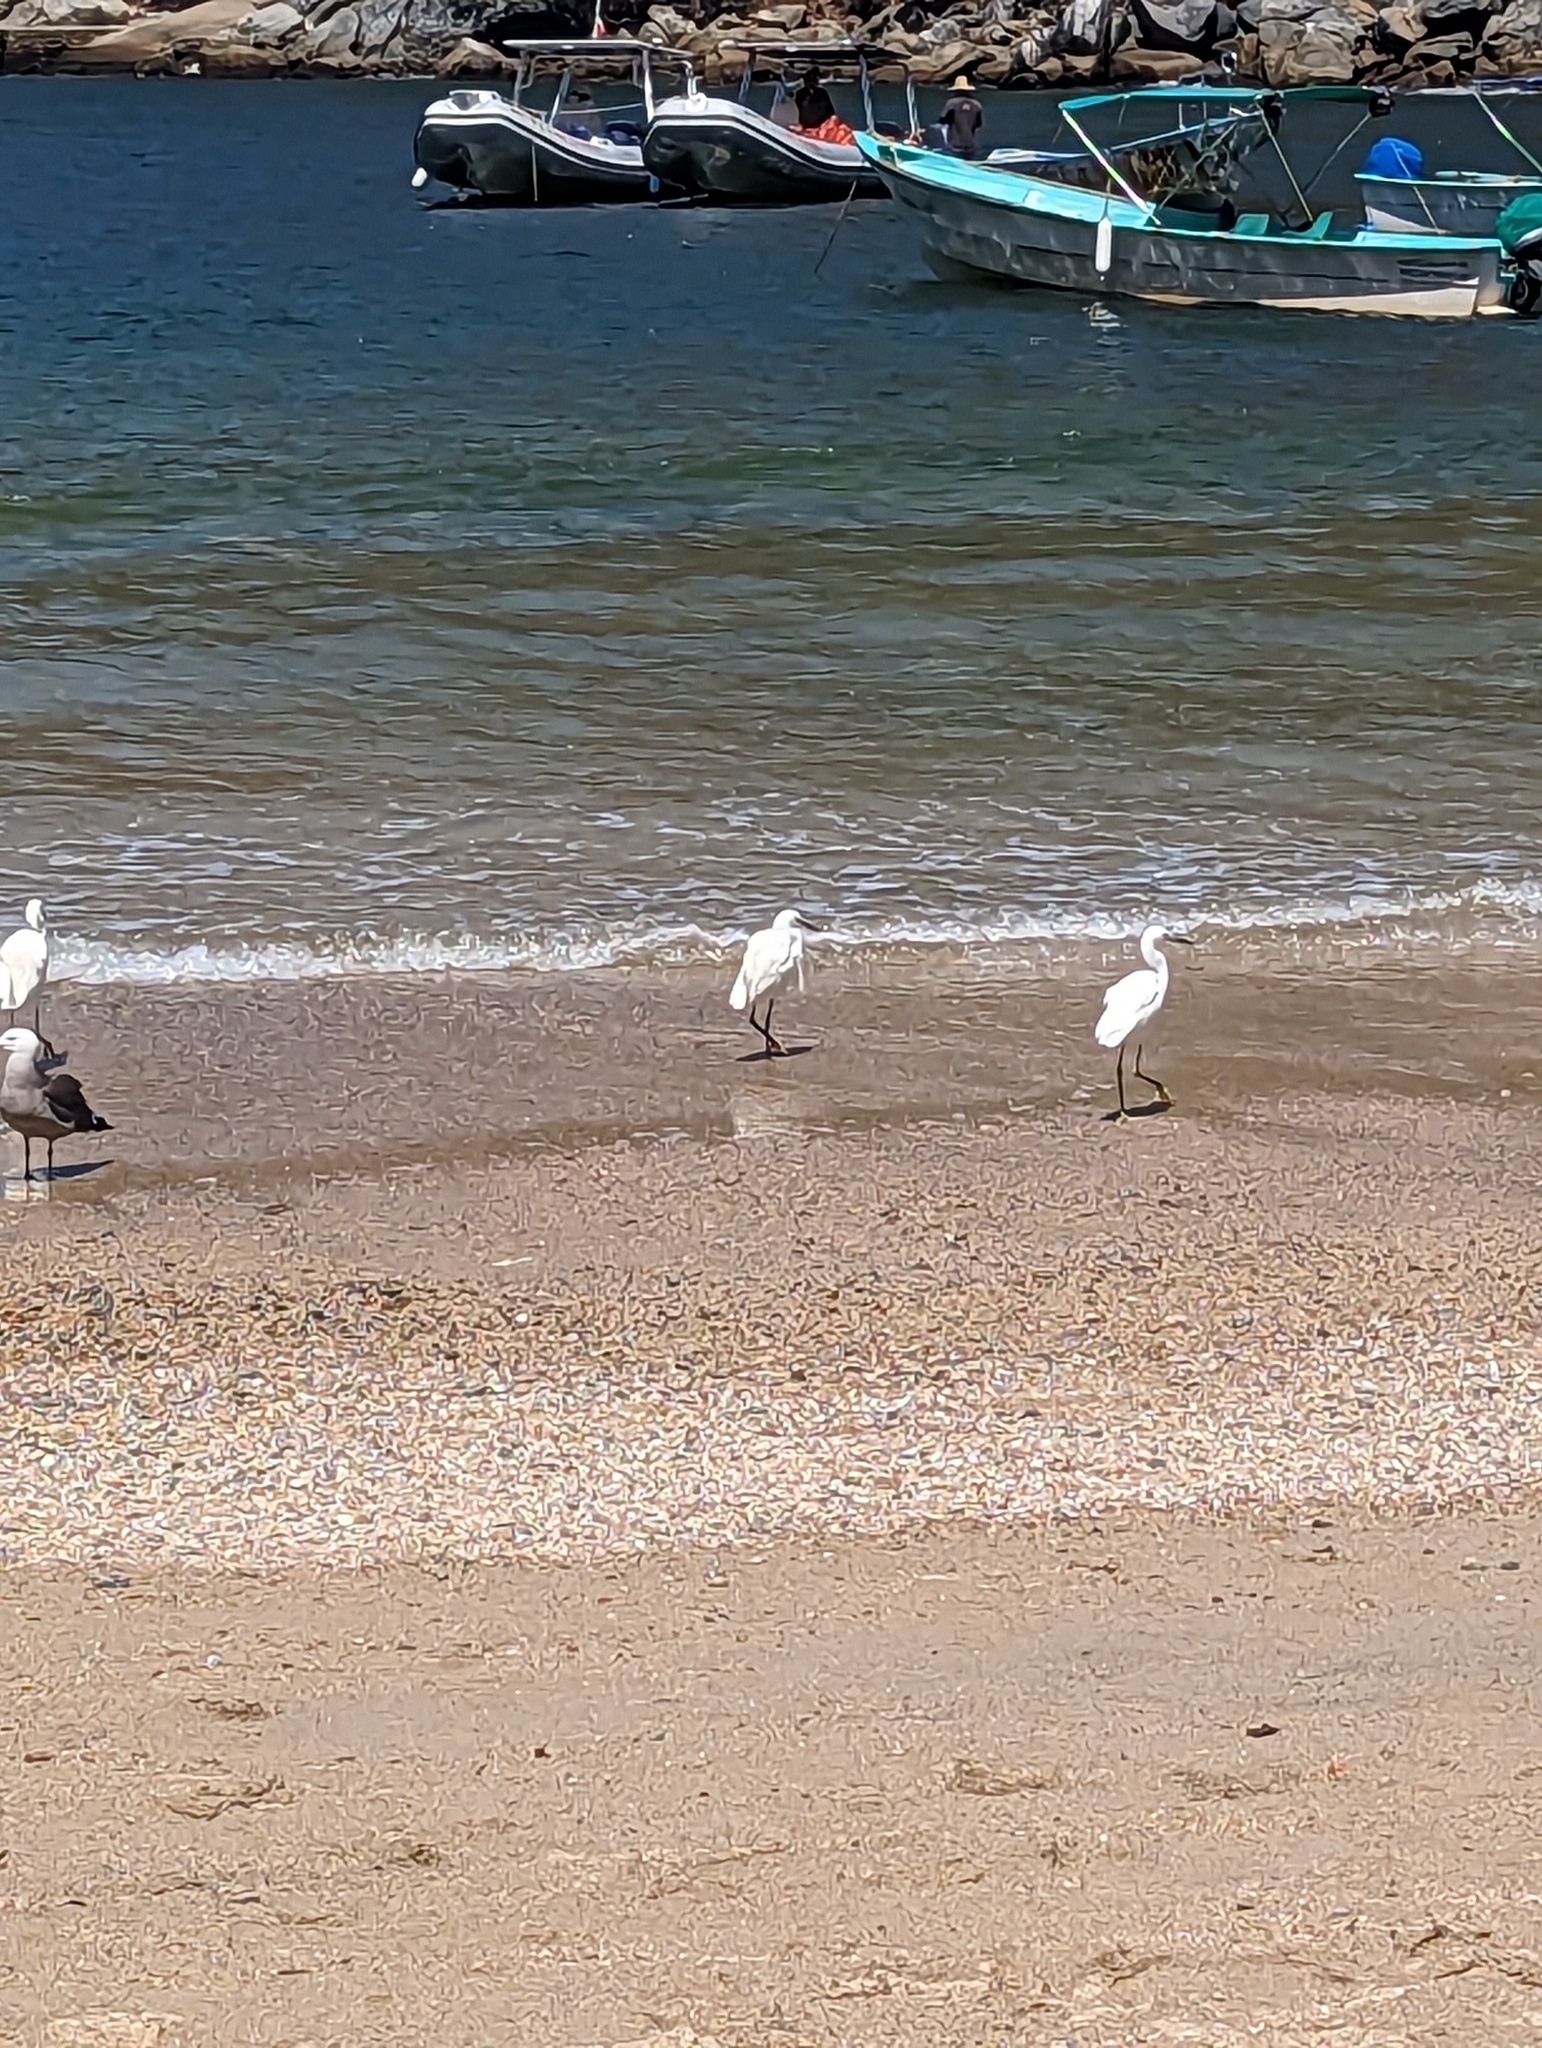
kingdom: Animalia
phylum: Chordata
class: Aves
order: Pelecaniformes
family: Ardeidae
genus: Egretta
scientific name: Egretta thula
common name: Snowy egret
